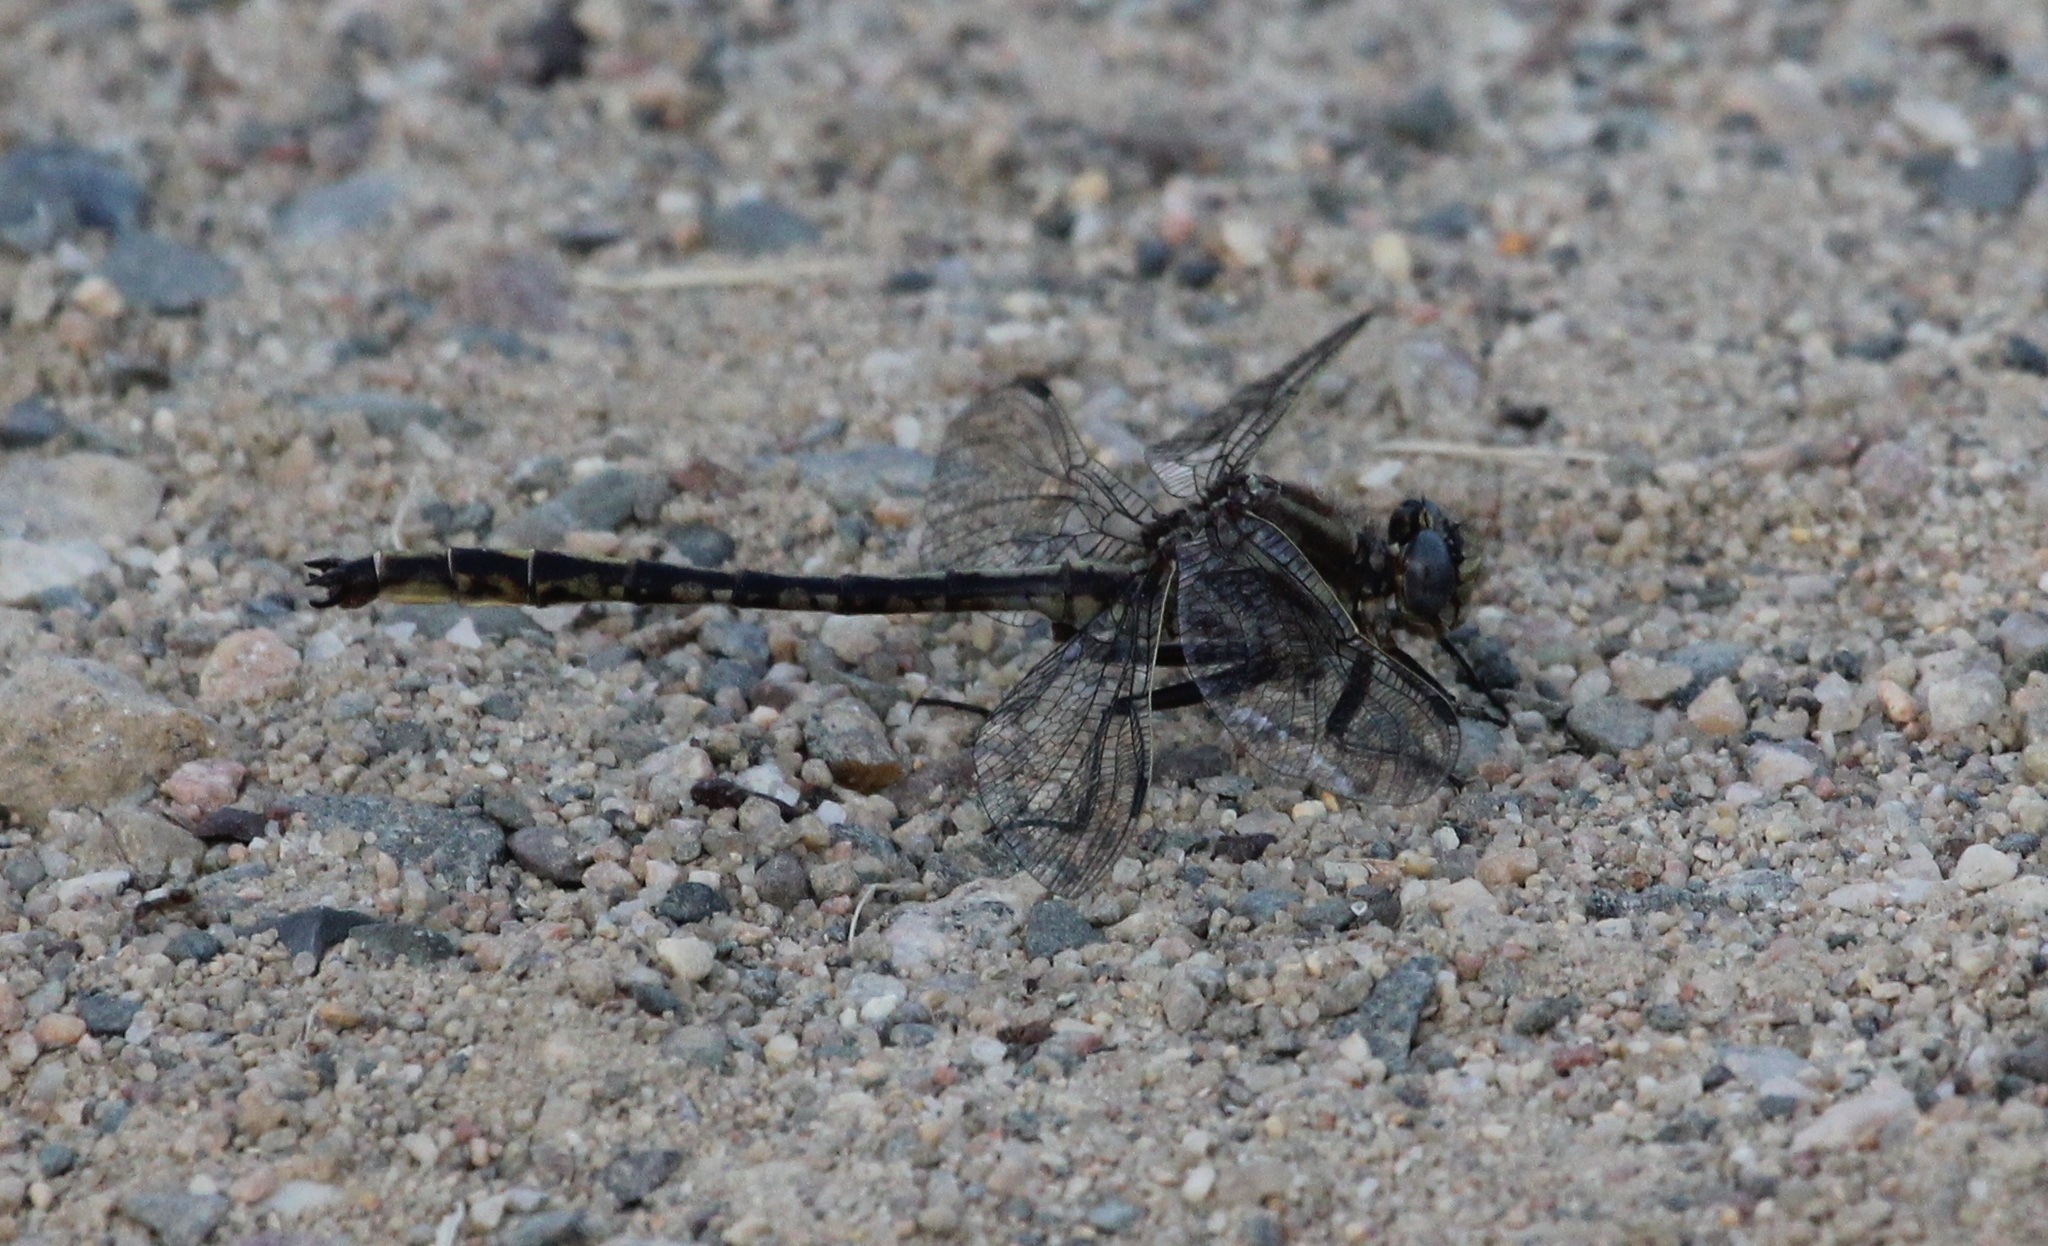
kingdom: Animalia
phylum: Arthropoda
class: Insecta
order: Odonata
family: Gomphidae
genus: Phanogomphus
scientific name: Phanogomphus spicatus
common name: Dusky clubtail
